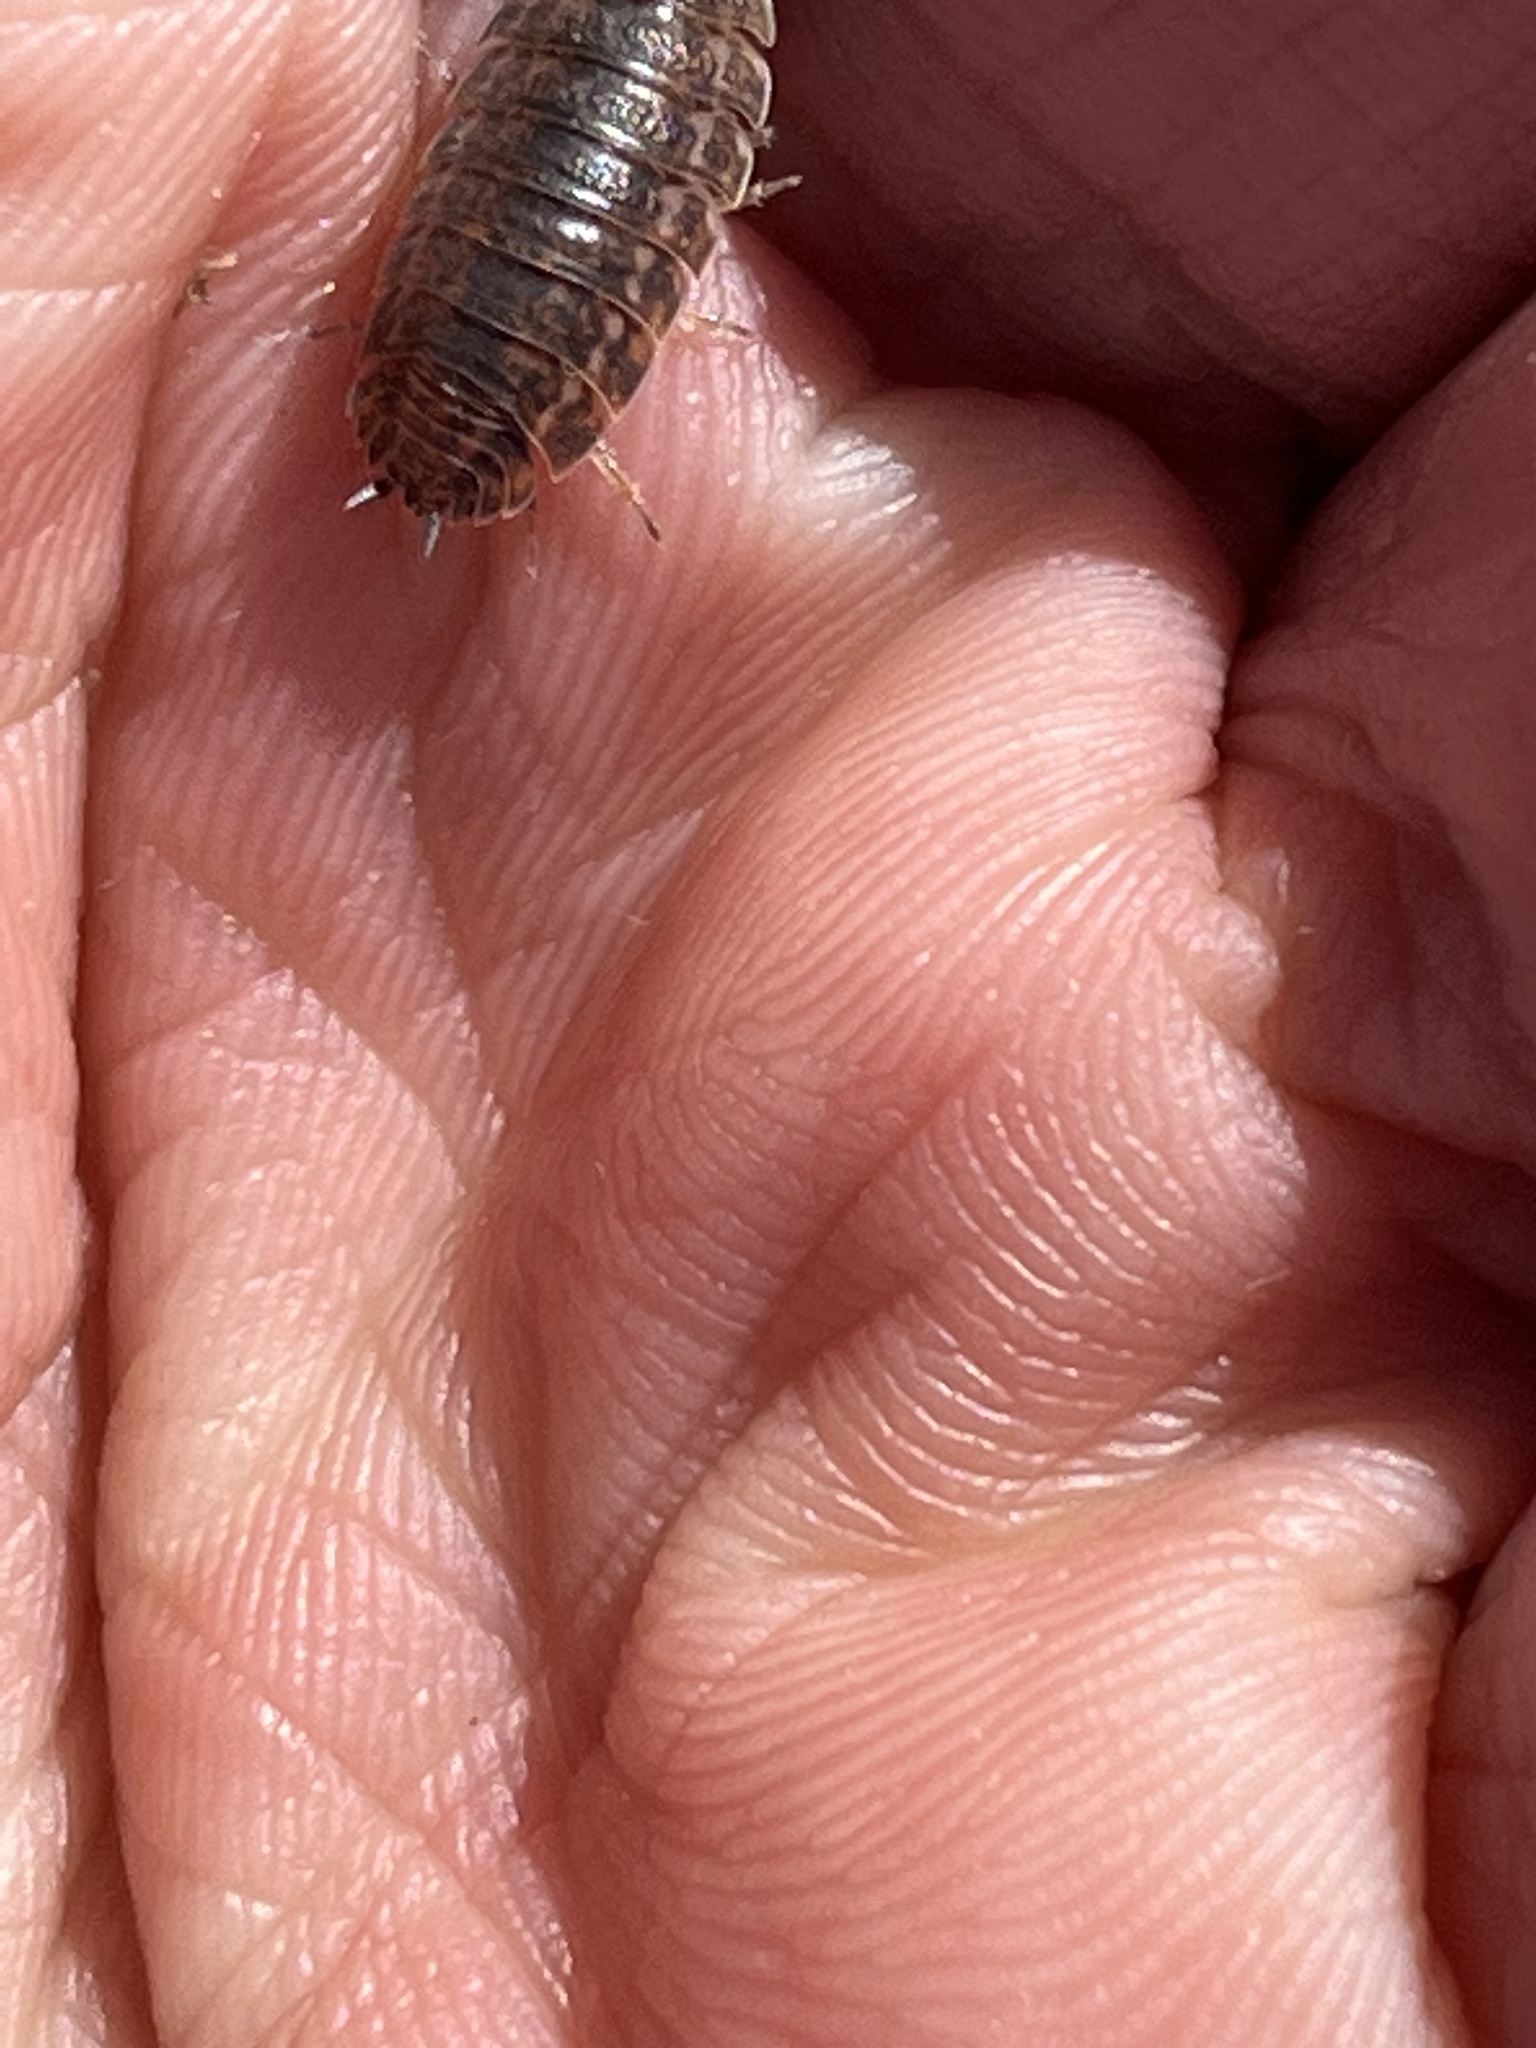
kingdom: Animalia
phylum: Arthropoda
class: Malacostraca
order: Isopoda
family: Trachelipodidae
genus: Trachelipus
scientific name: Trachelipus rathkii
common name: Isopod
